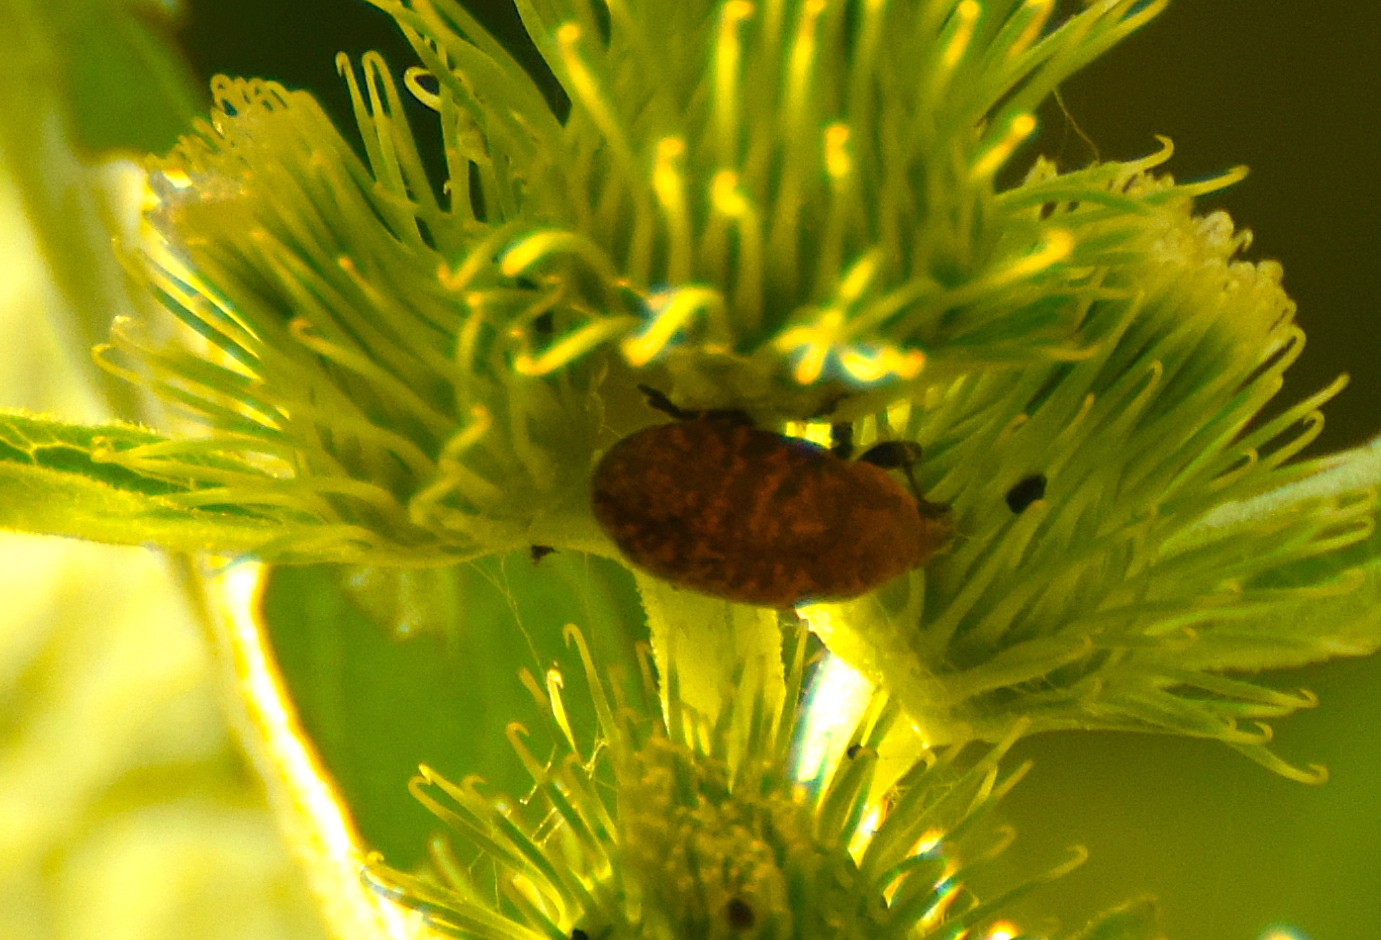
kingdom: Animalia
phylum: Arthropoda
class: Insecta
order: Coleoptera
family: Curculionidae
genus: Larinus
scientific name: Larinus obtusus
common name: Weevil
